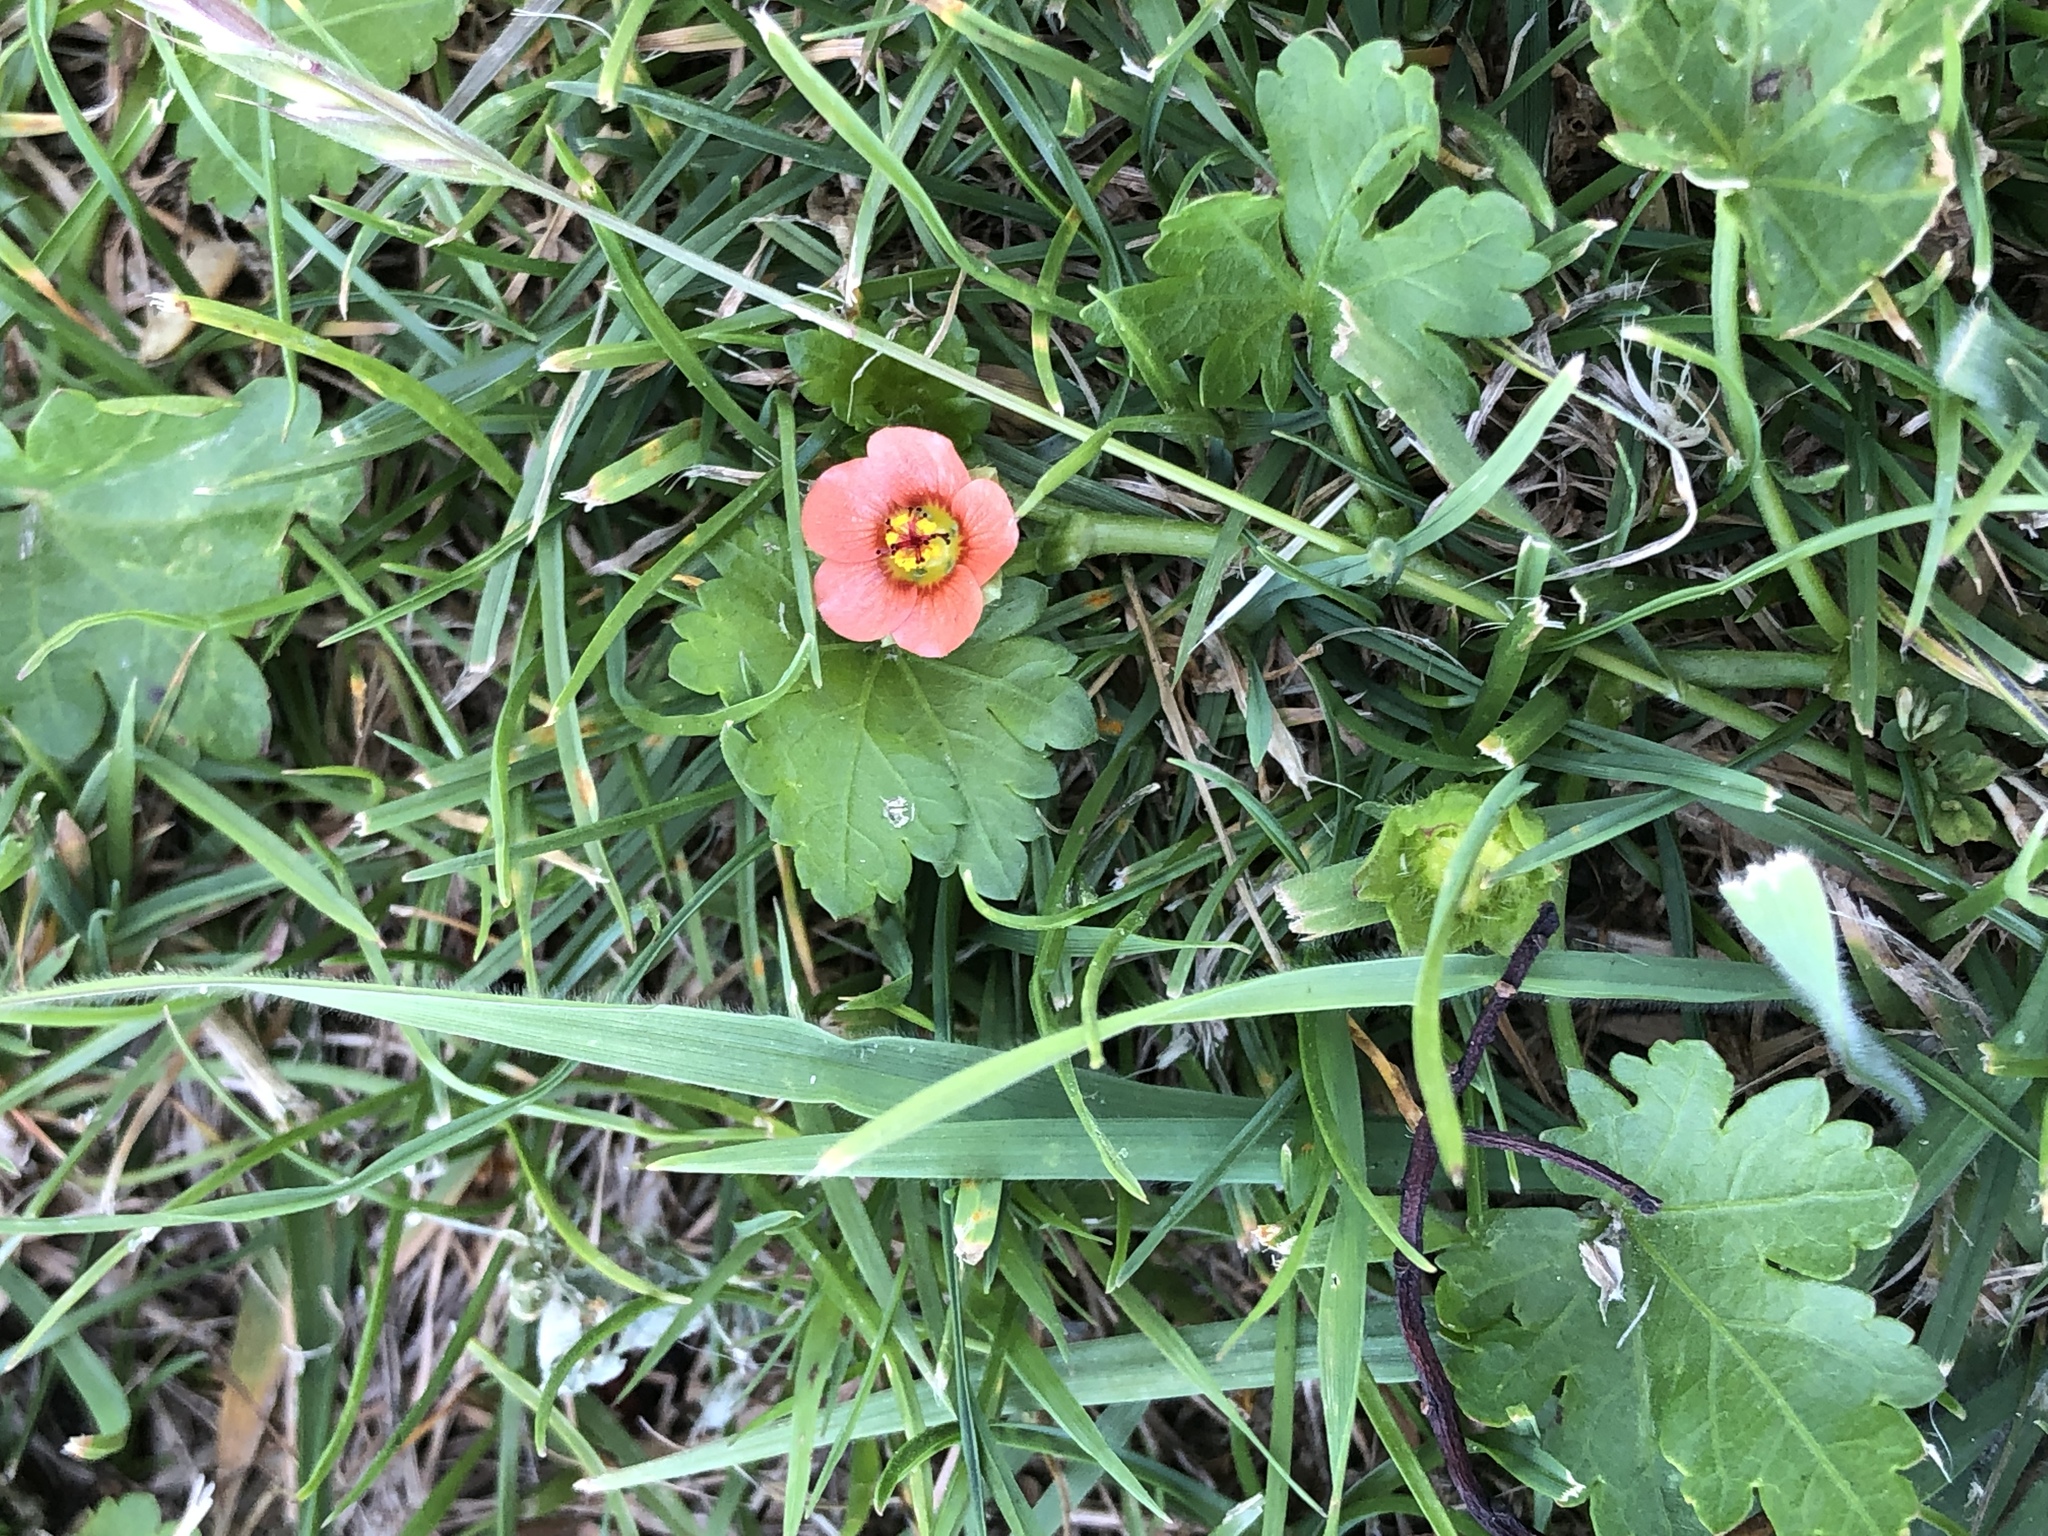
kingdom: Plantae
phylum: Tracheophyta
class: Magnoliopsida
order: Malvales
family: Malvaceae
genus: Modiola
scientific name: Modiola caroliniana
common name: Carolina bristlemallow
